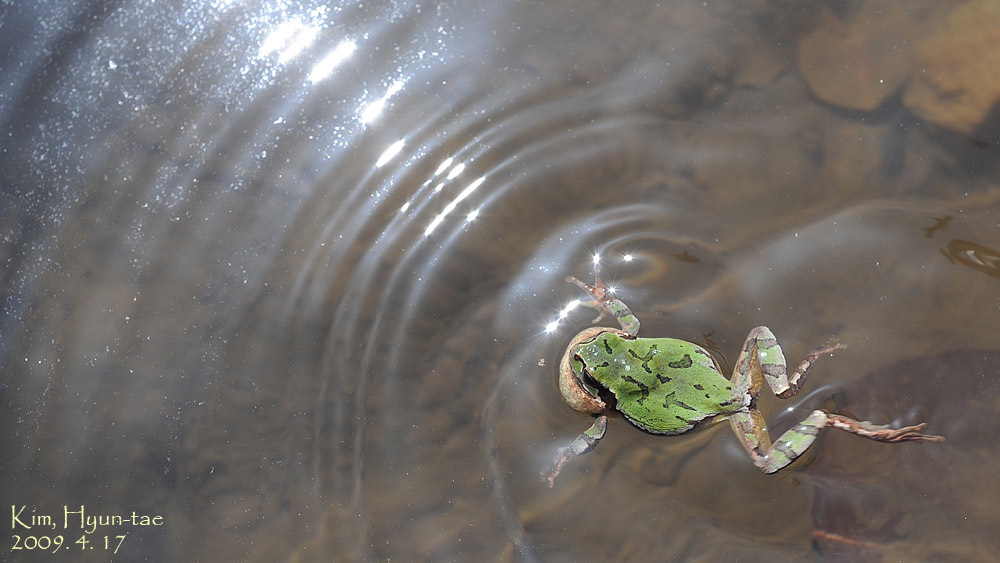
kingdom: Animalia
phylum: Chordata
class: Amphibia
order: Anura
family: Hylidae
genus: Dryophytes
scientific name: Dryophytes japonicus
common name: Japanese treefrog
